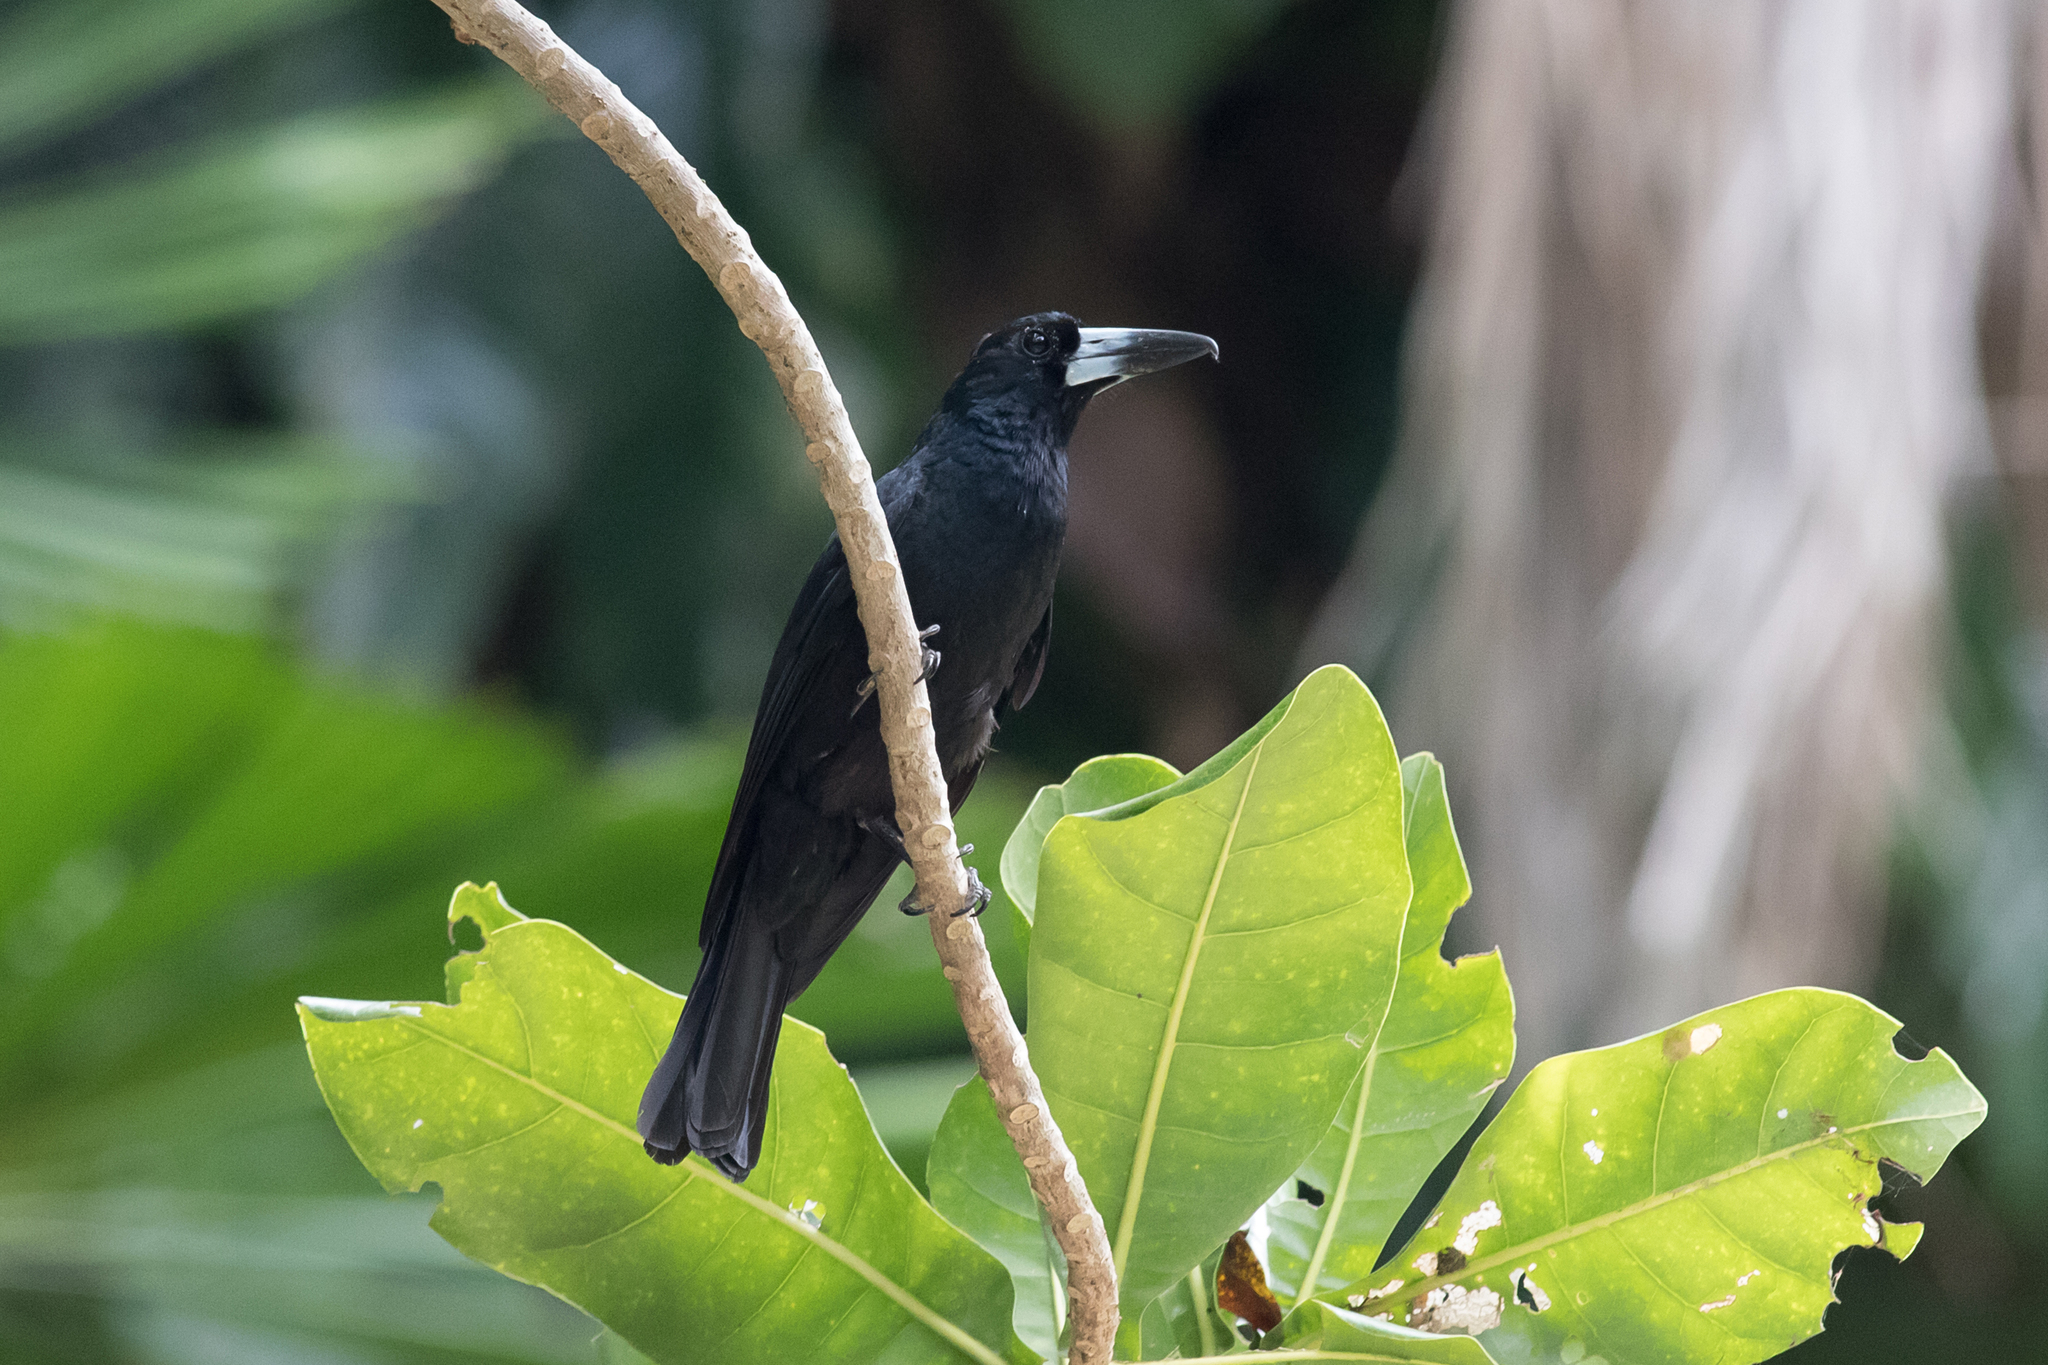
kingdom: Animalia
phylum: Chordata
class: Aves
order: Passeriformes
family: Artamidae
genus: Melloria
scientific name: Melloria quoyi
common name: Black butcherbird
